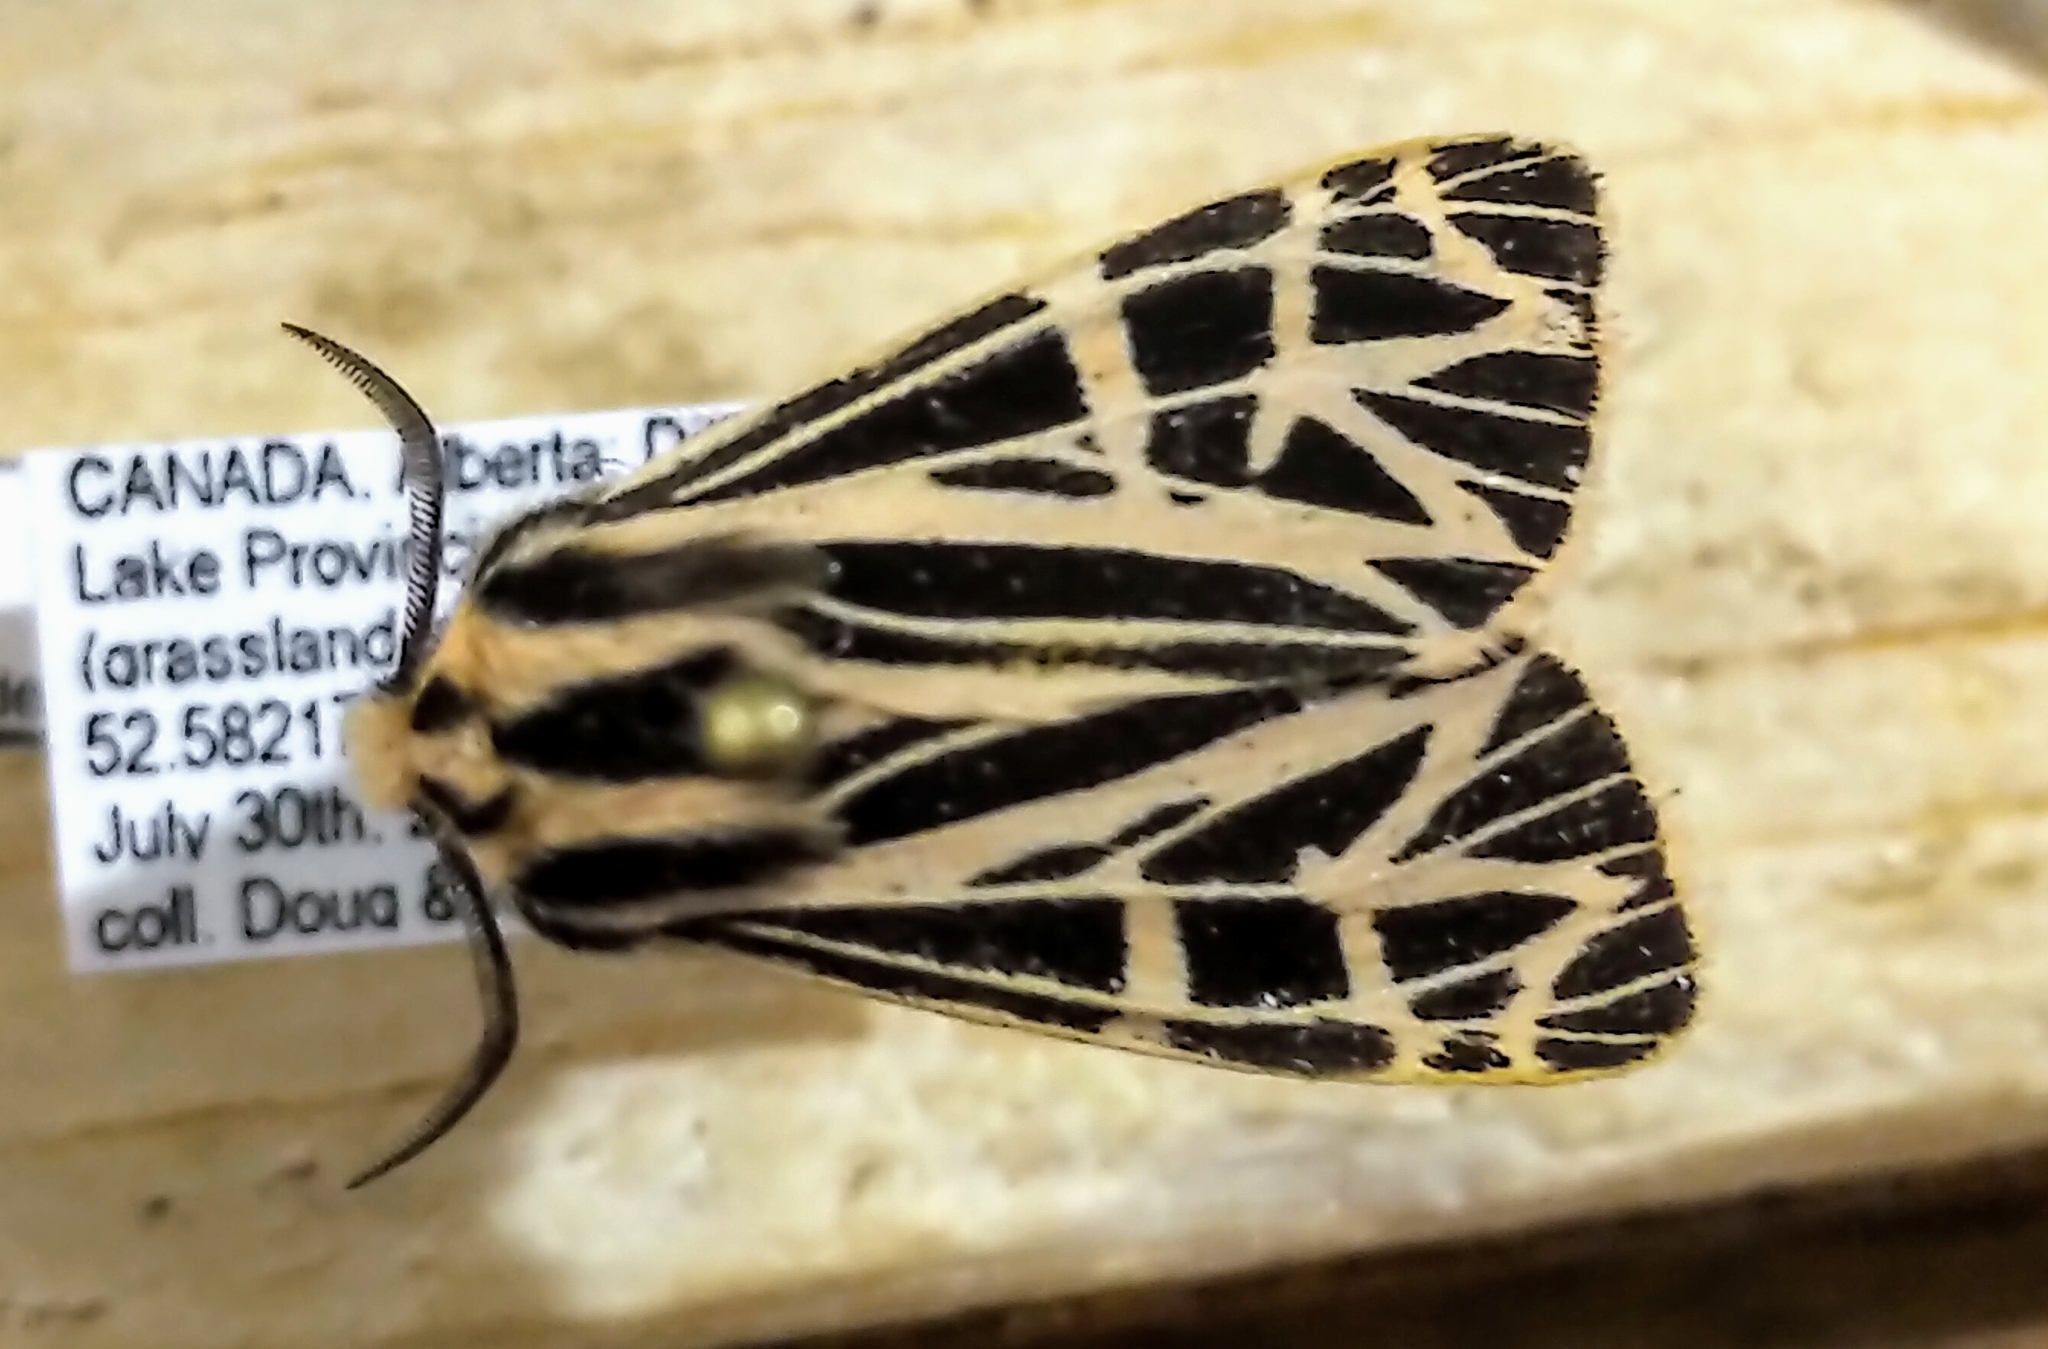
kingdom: Animalia
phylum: Arthropoda
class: Insecta
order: Lepidoptera
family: Erebidae
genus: Grammia
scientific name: Grammia parthenice
